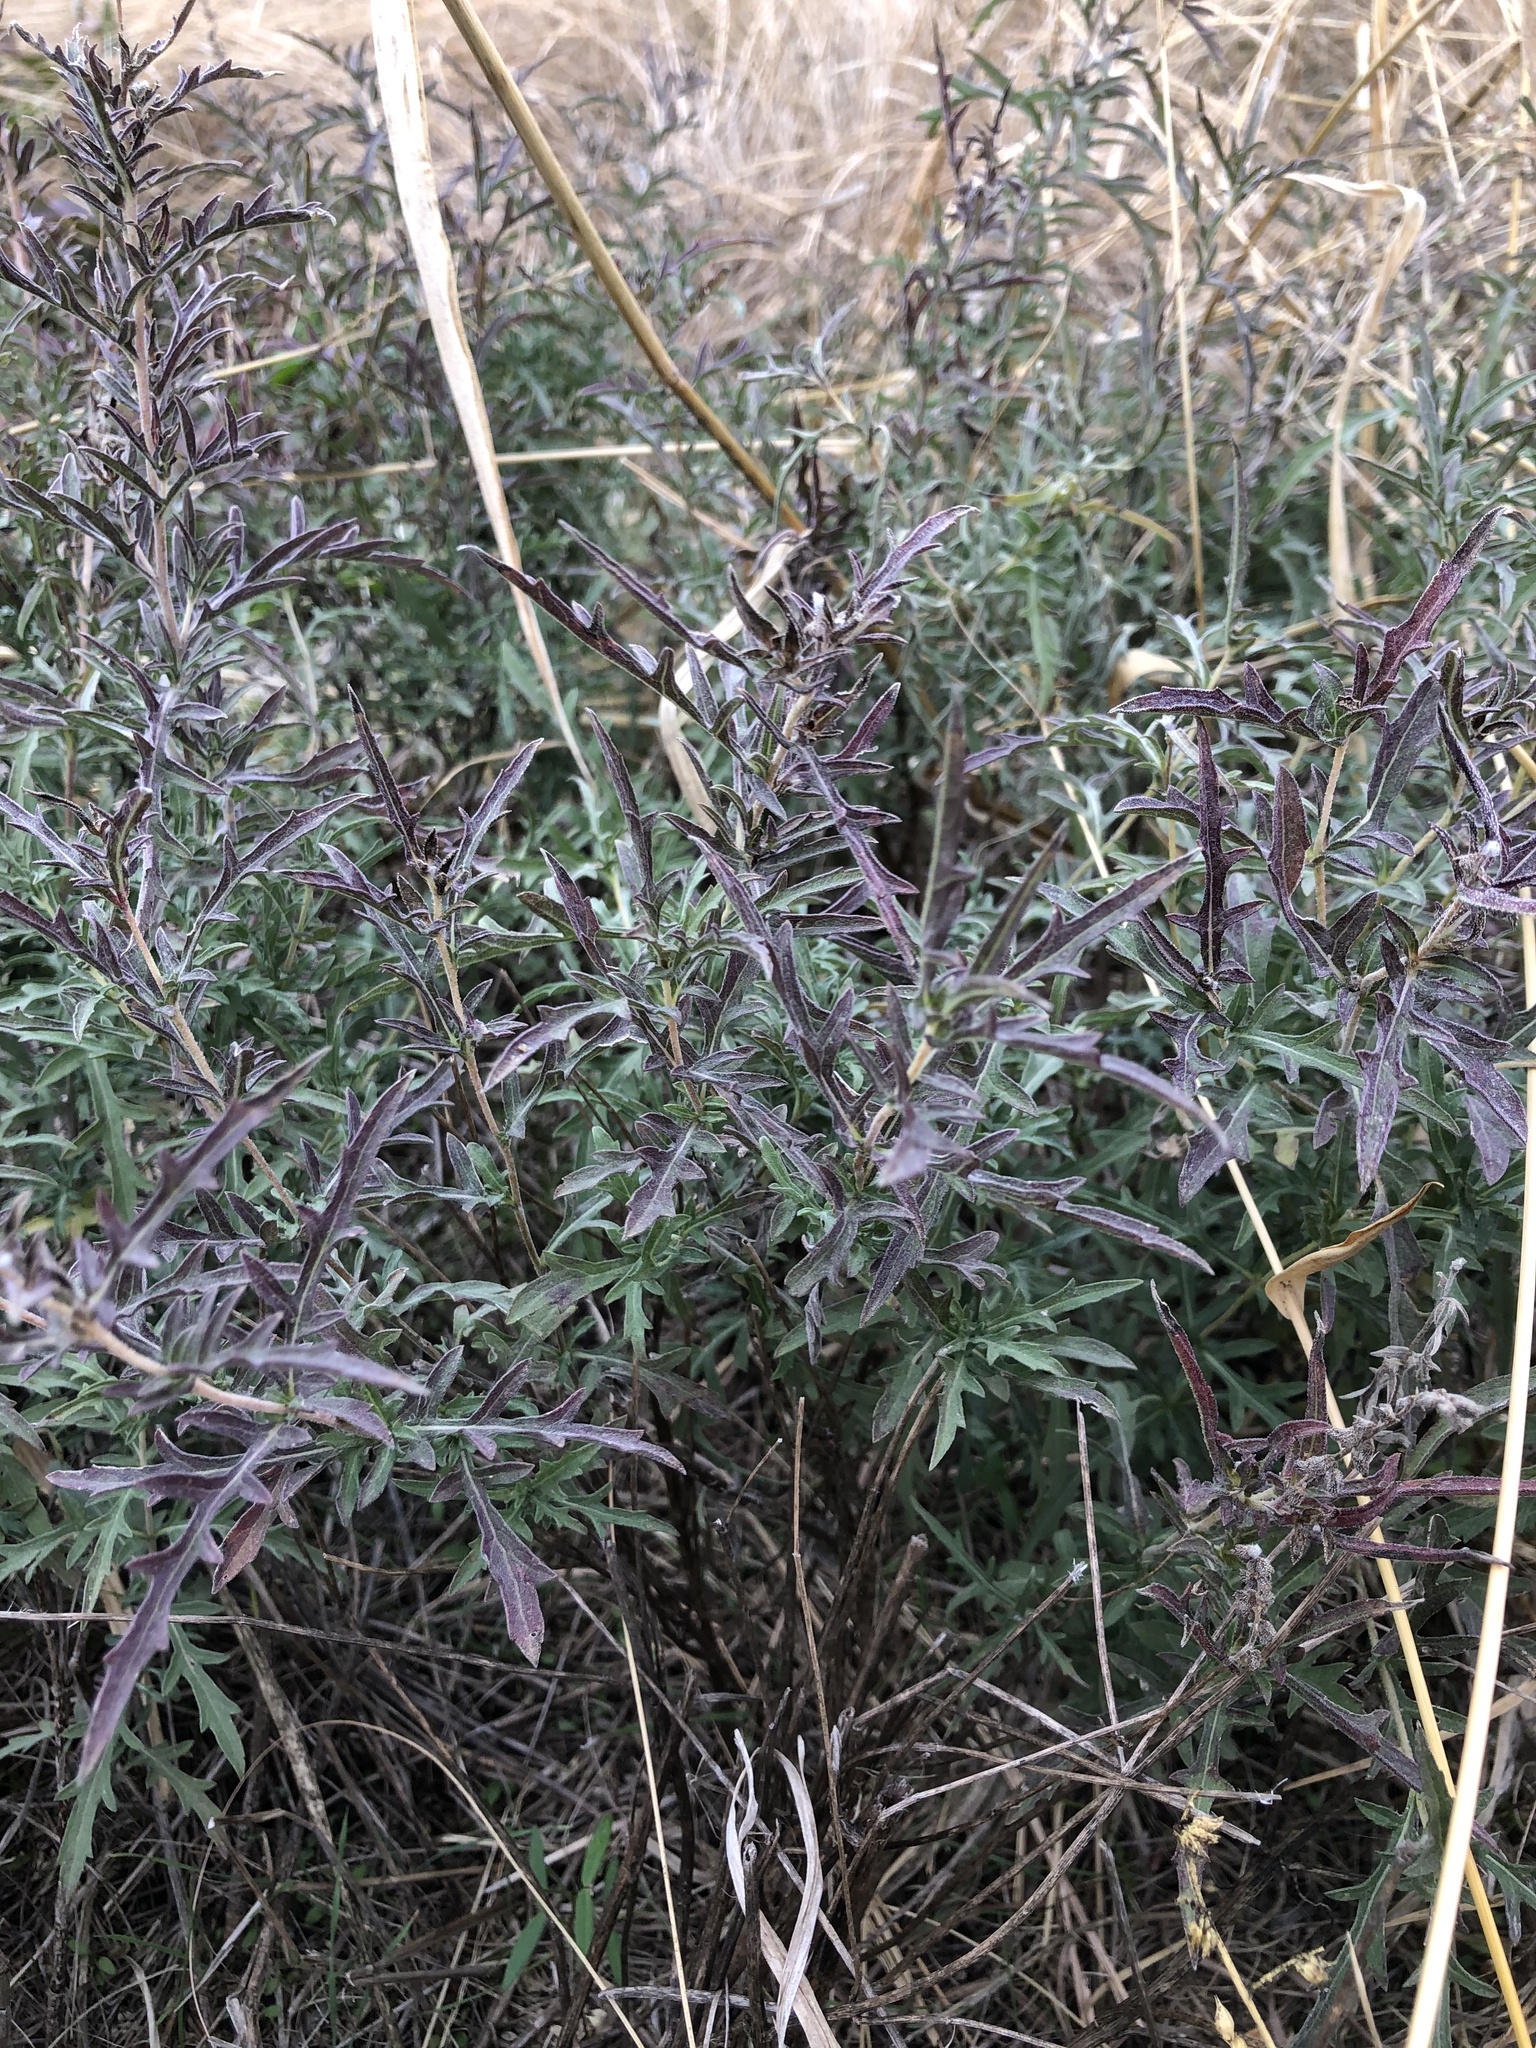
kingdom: Plantae
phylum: Tracheophyta
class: Magnoliopsida
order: Asterales
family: Asteraceae
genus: Ambrosia
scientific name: Ambrosia psilostachya
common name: Perennial ragweed
